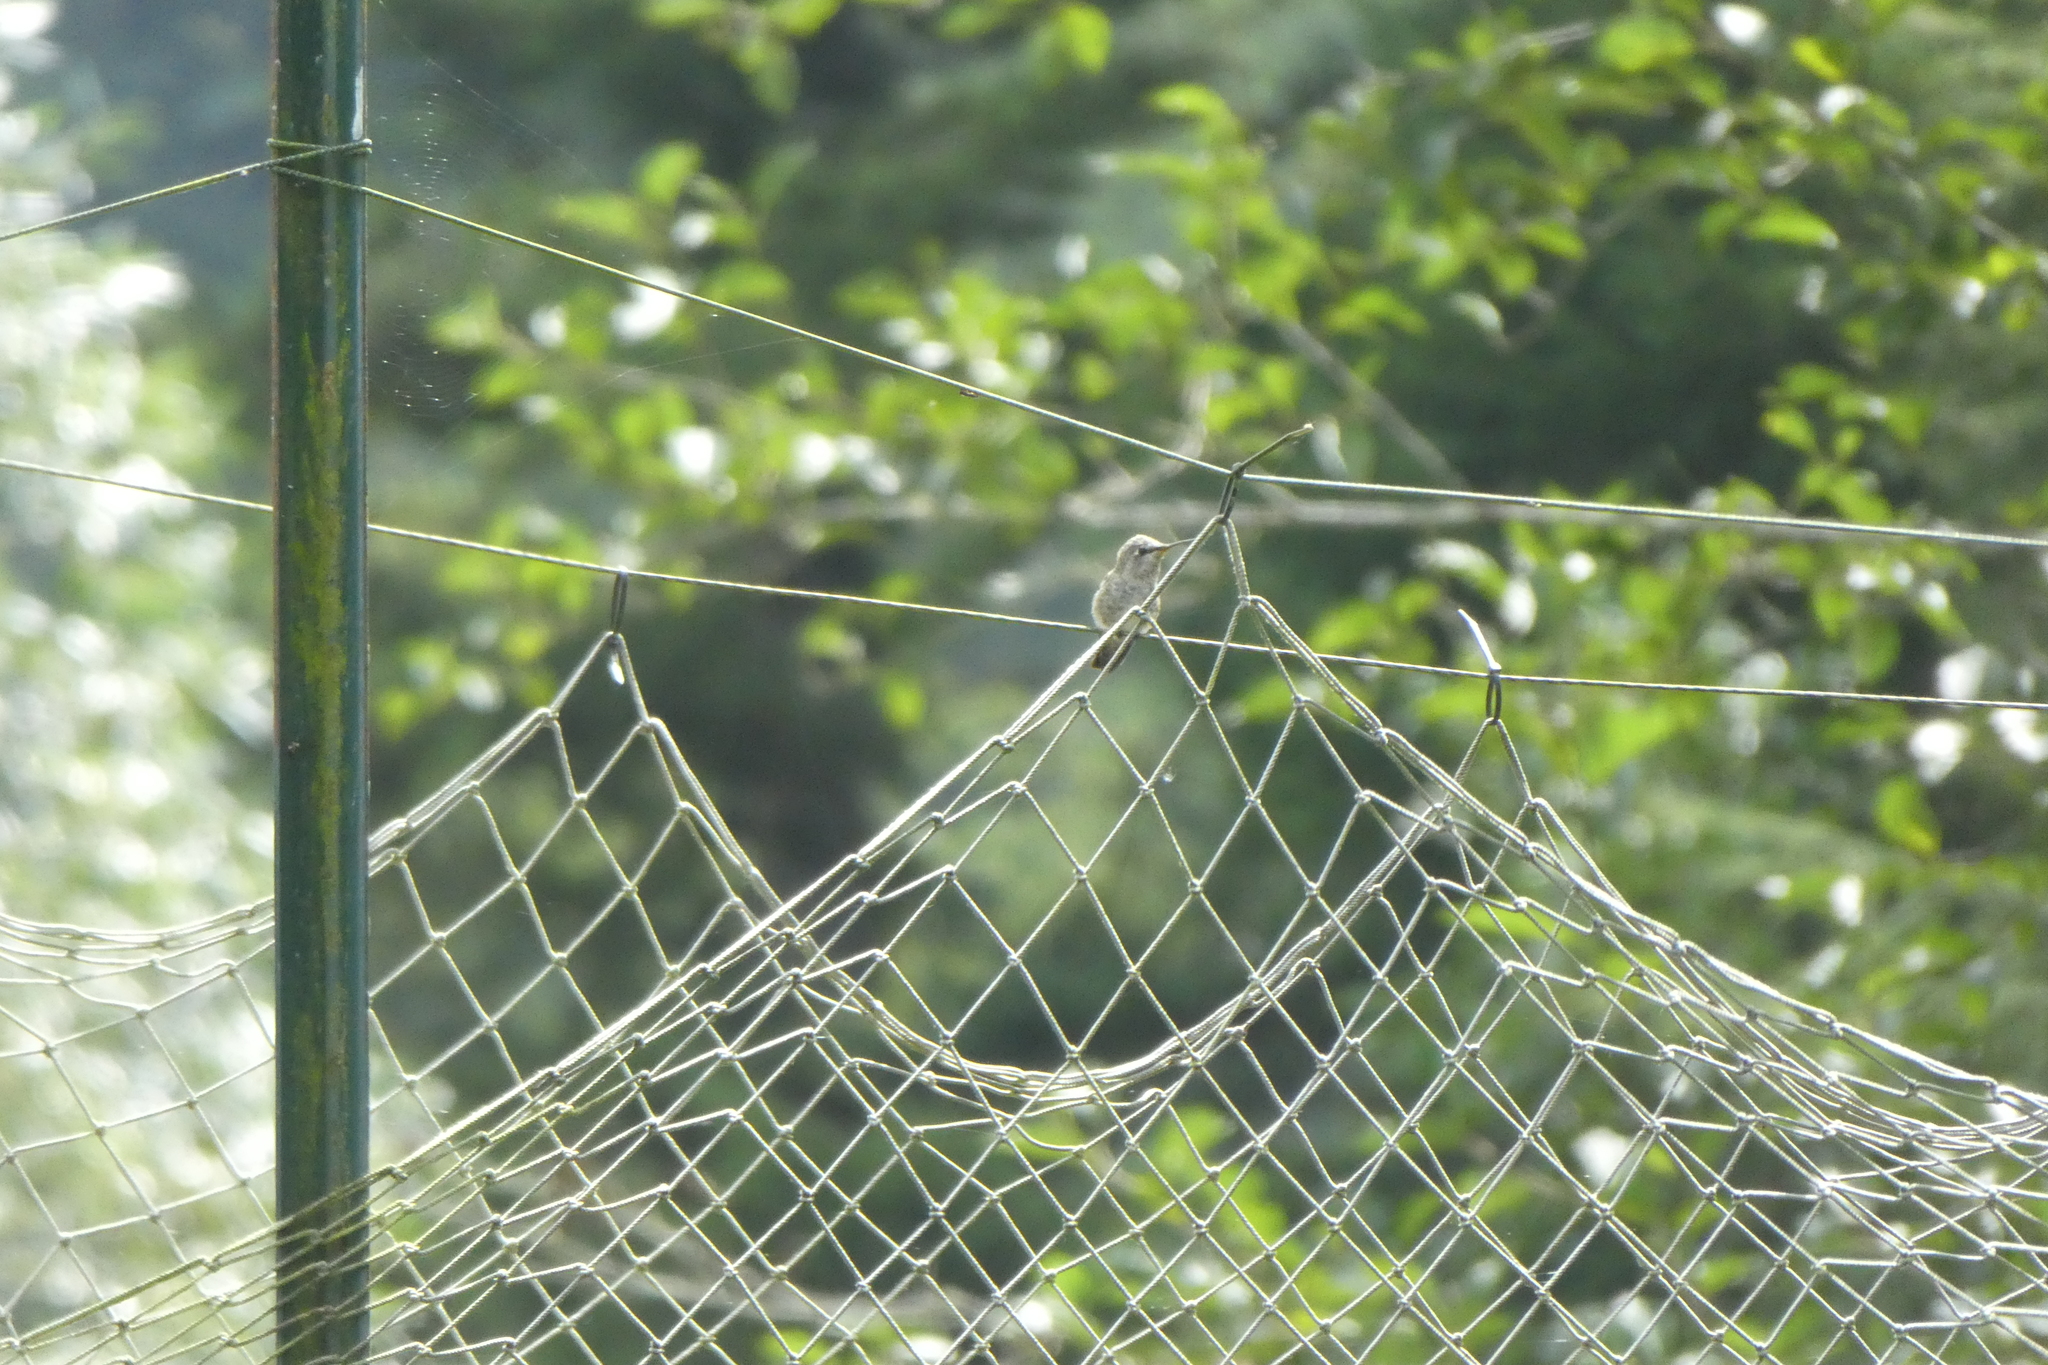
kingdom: Animalia
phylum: Chordata
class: Aves
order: Apodiformes
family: Trochilidae
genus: Calypte
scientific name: Calypte anna
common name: Anna's hummingbird
